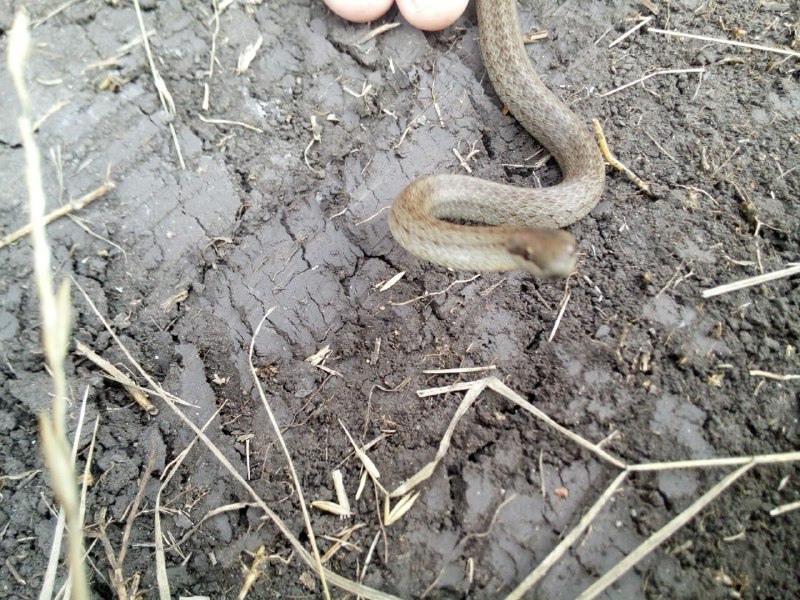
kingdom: Animalia
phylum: Chordata
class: Squamata
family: Colubridae
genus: Coronella
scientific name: Coronella austriaca
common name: Smooth snake
